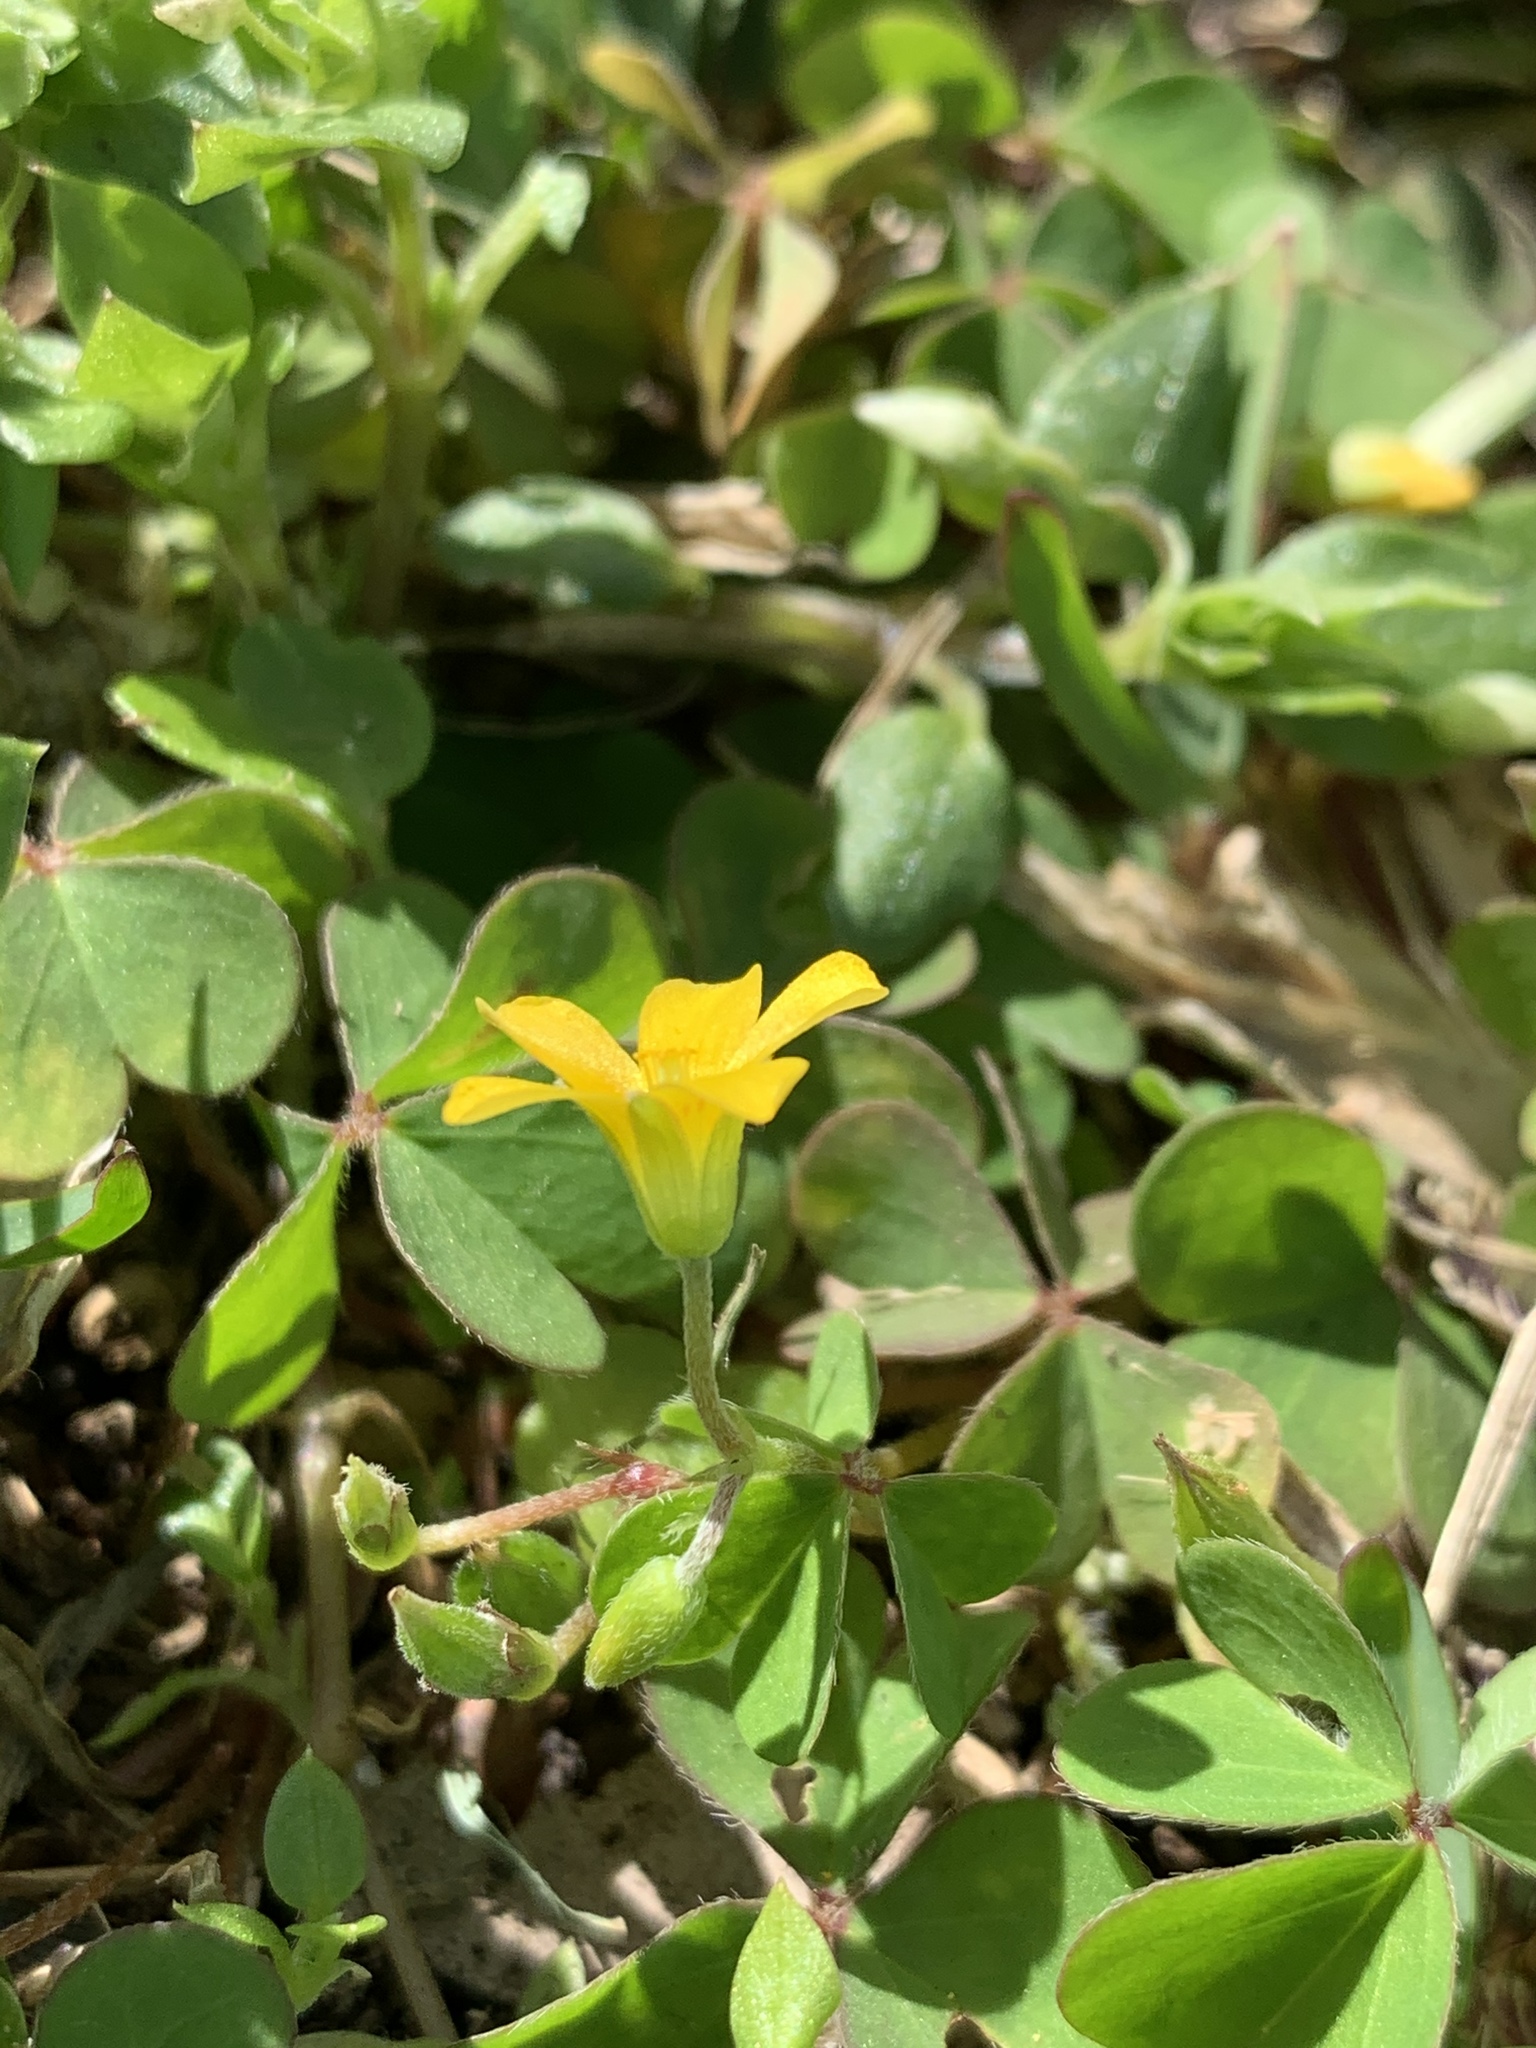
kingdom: Plantae
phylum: Tracheophyta
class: Magnoliopsida
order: Oxalidales
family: Oxalidaceae
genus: Oxalis
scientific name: Oxalis corniculata
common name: Procumbent yellow-sorrel
